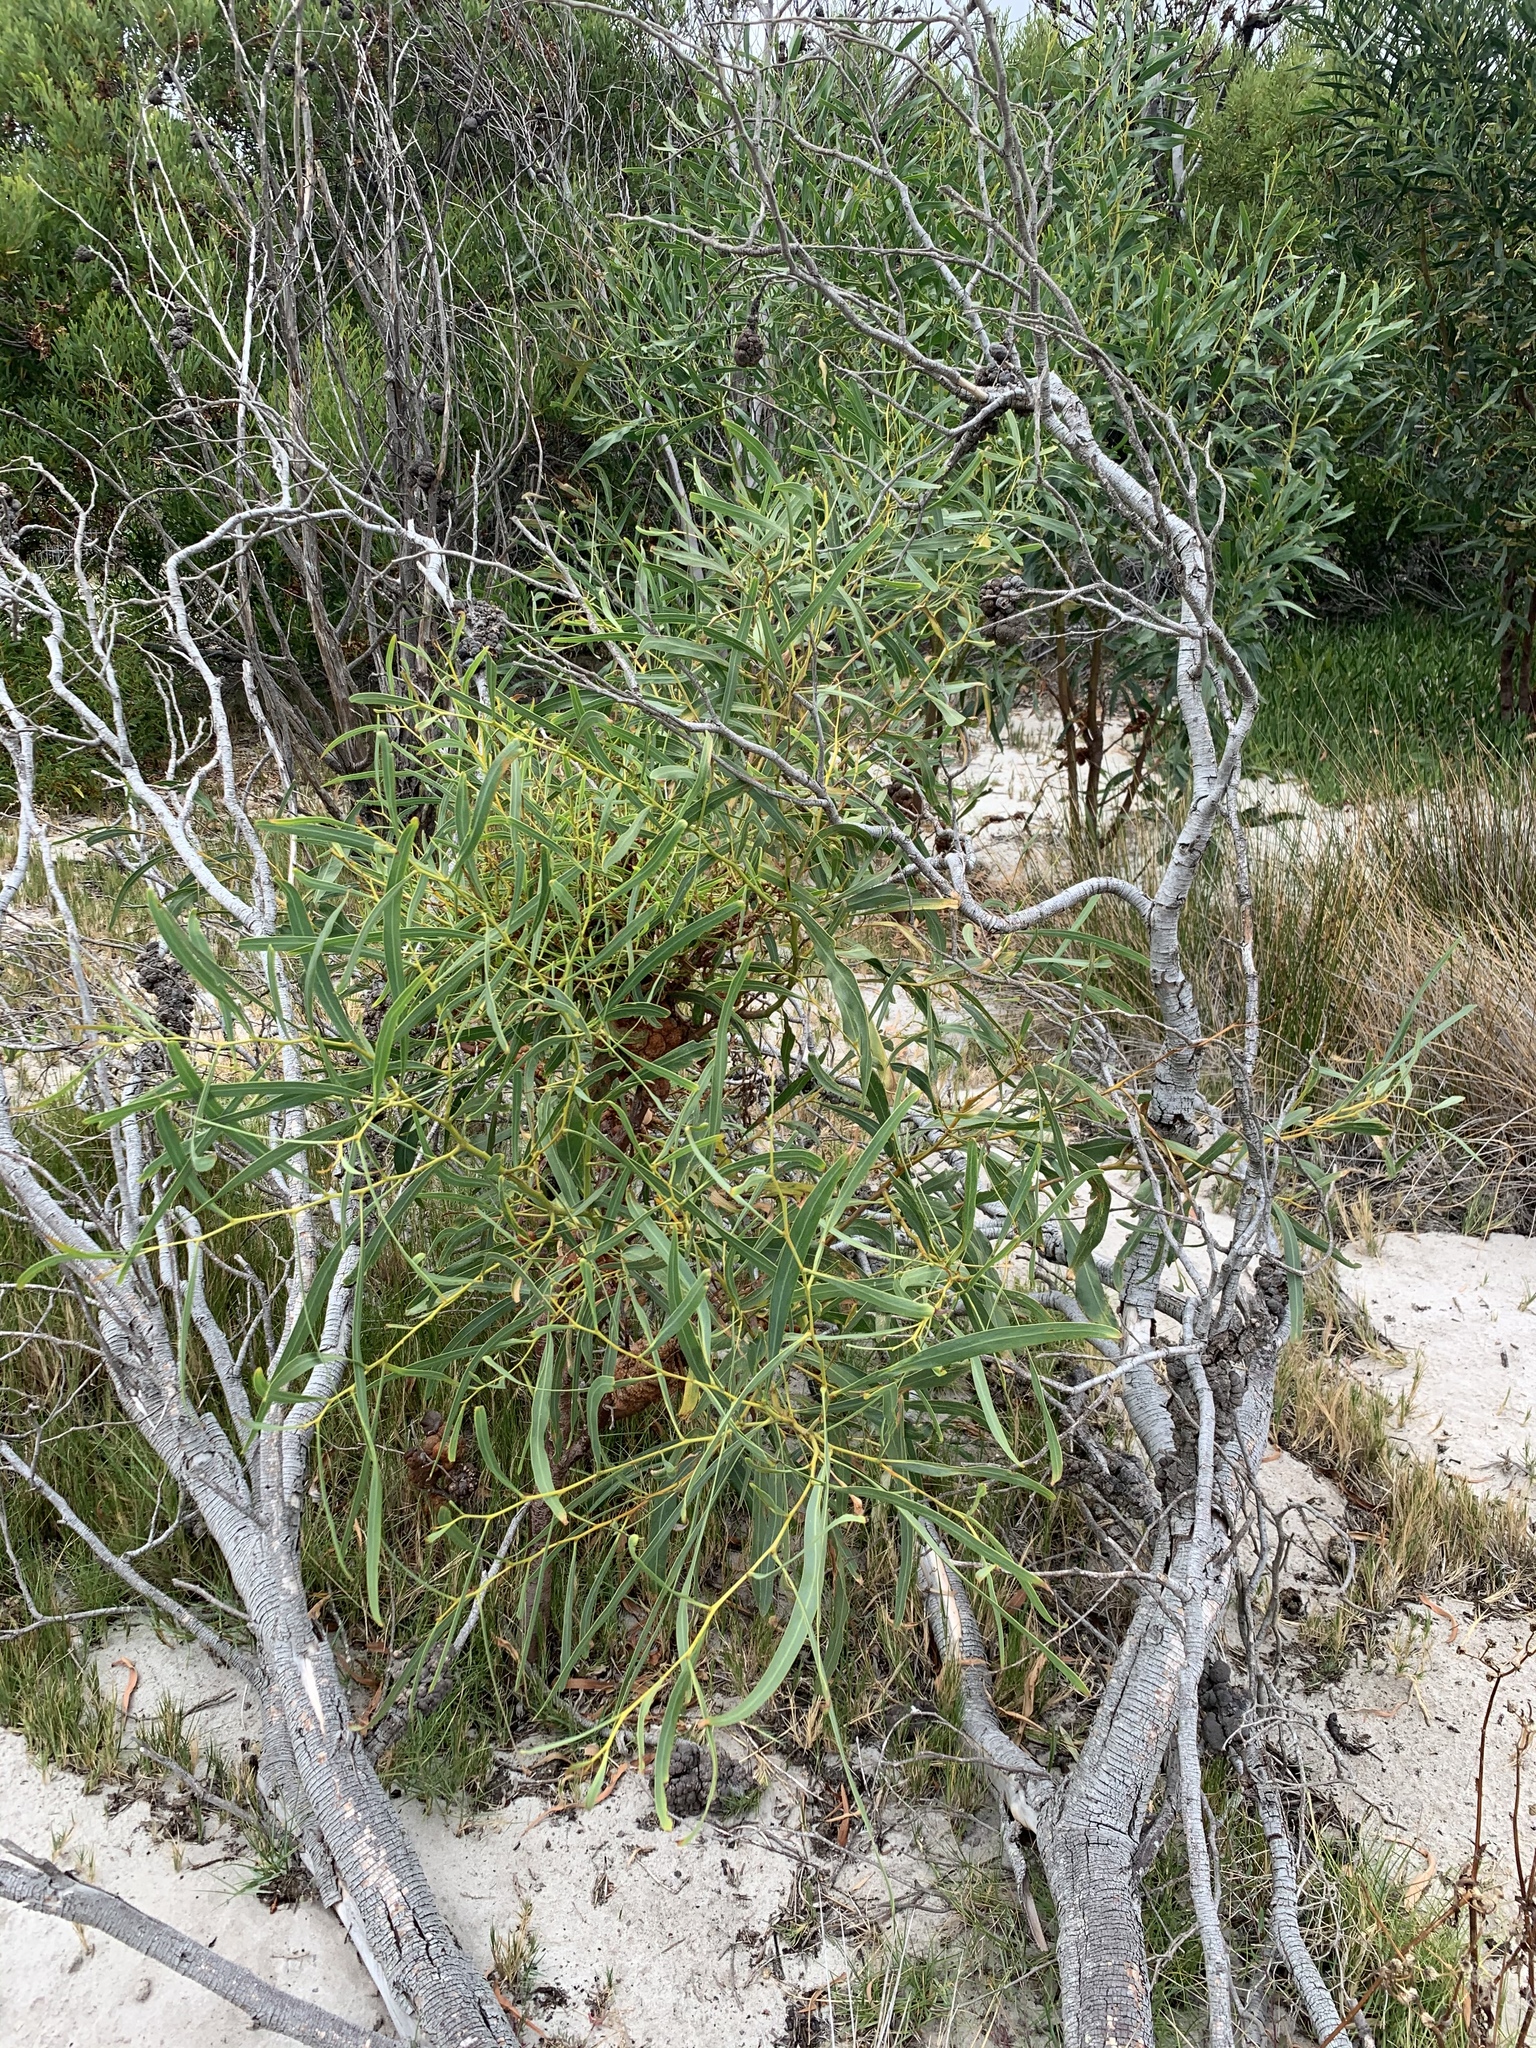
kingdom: Plantae
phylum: Tracheophyta
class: Magnoliopsida
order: Fabales
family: Fabaceae
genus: Acacia
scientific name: Acacia saligna
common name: Orange wattle
